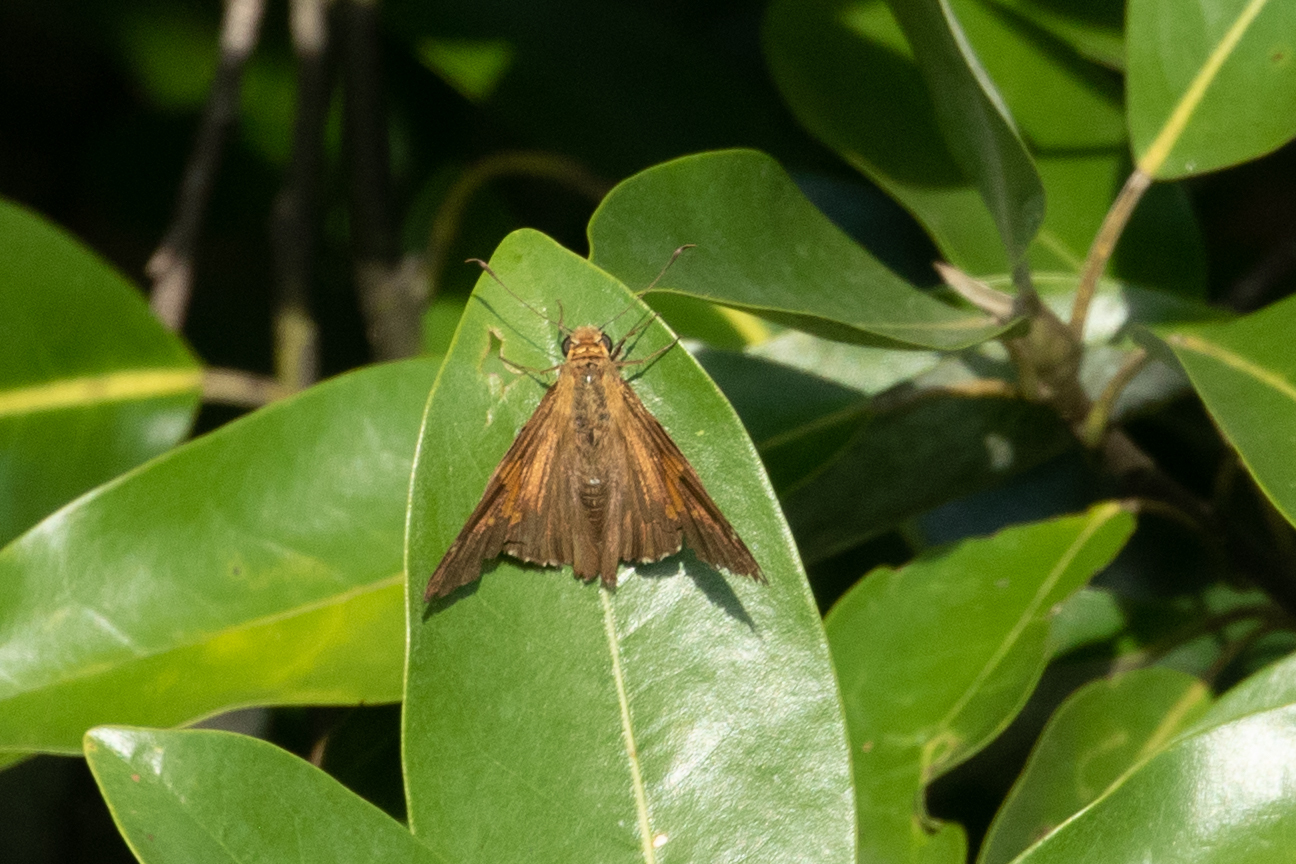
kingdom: Animalia
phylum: Arthropoda
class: Insecta
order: Lepidoptera
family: Hesperiidae
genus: Epargyreus
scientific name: Epargyreus clarus
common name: Silver-spotted skipper
